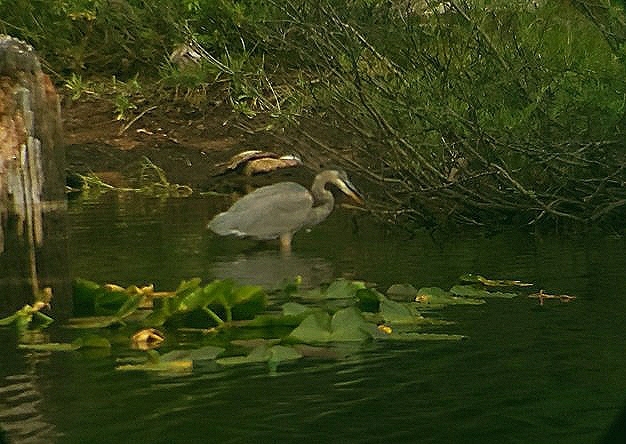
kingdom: Animalia
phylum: Chordata
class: Aves
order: Pelecaniformes
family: Ardeidae
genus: Ardea
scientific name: Ardea herodias
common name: Great blue heron
